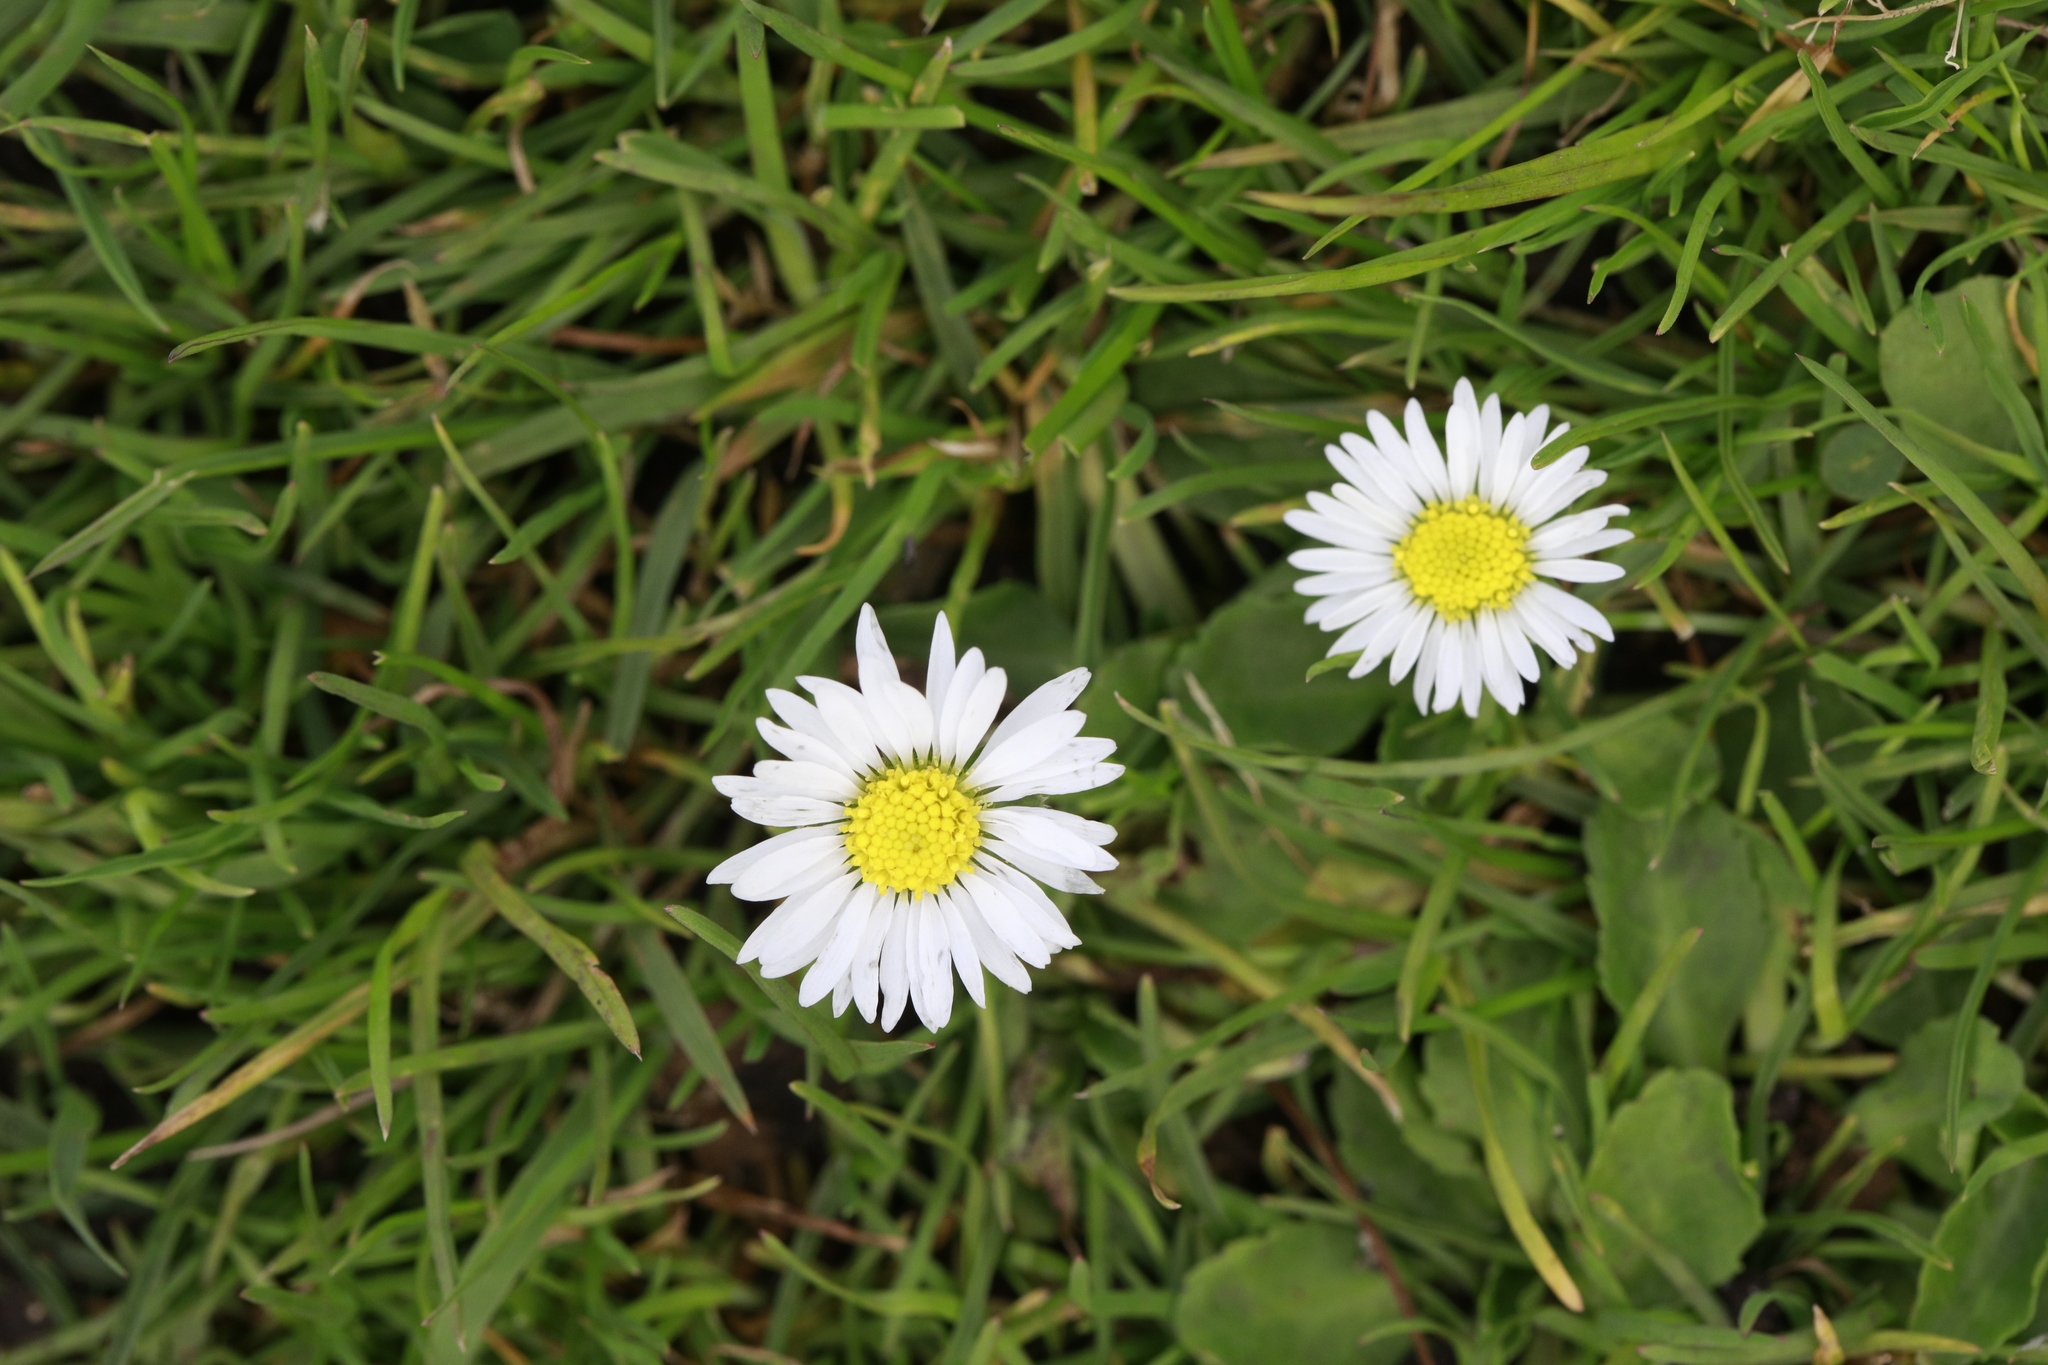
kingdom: Plantae
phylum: Tracheophyta
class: Magnoliopsida
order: Asterales
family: Asteraceae
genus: Bellis
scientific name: Bellis perennis
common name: Lawndaisy
